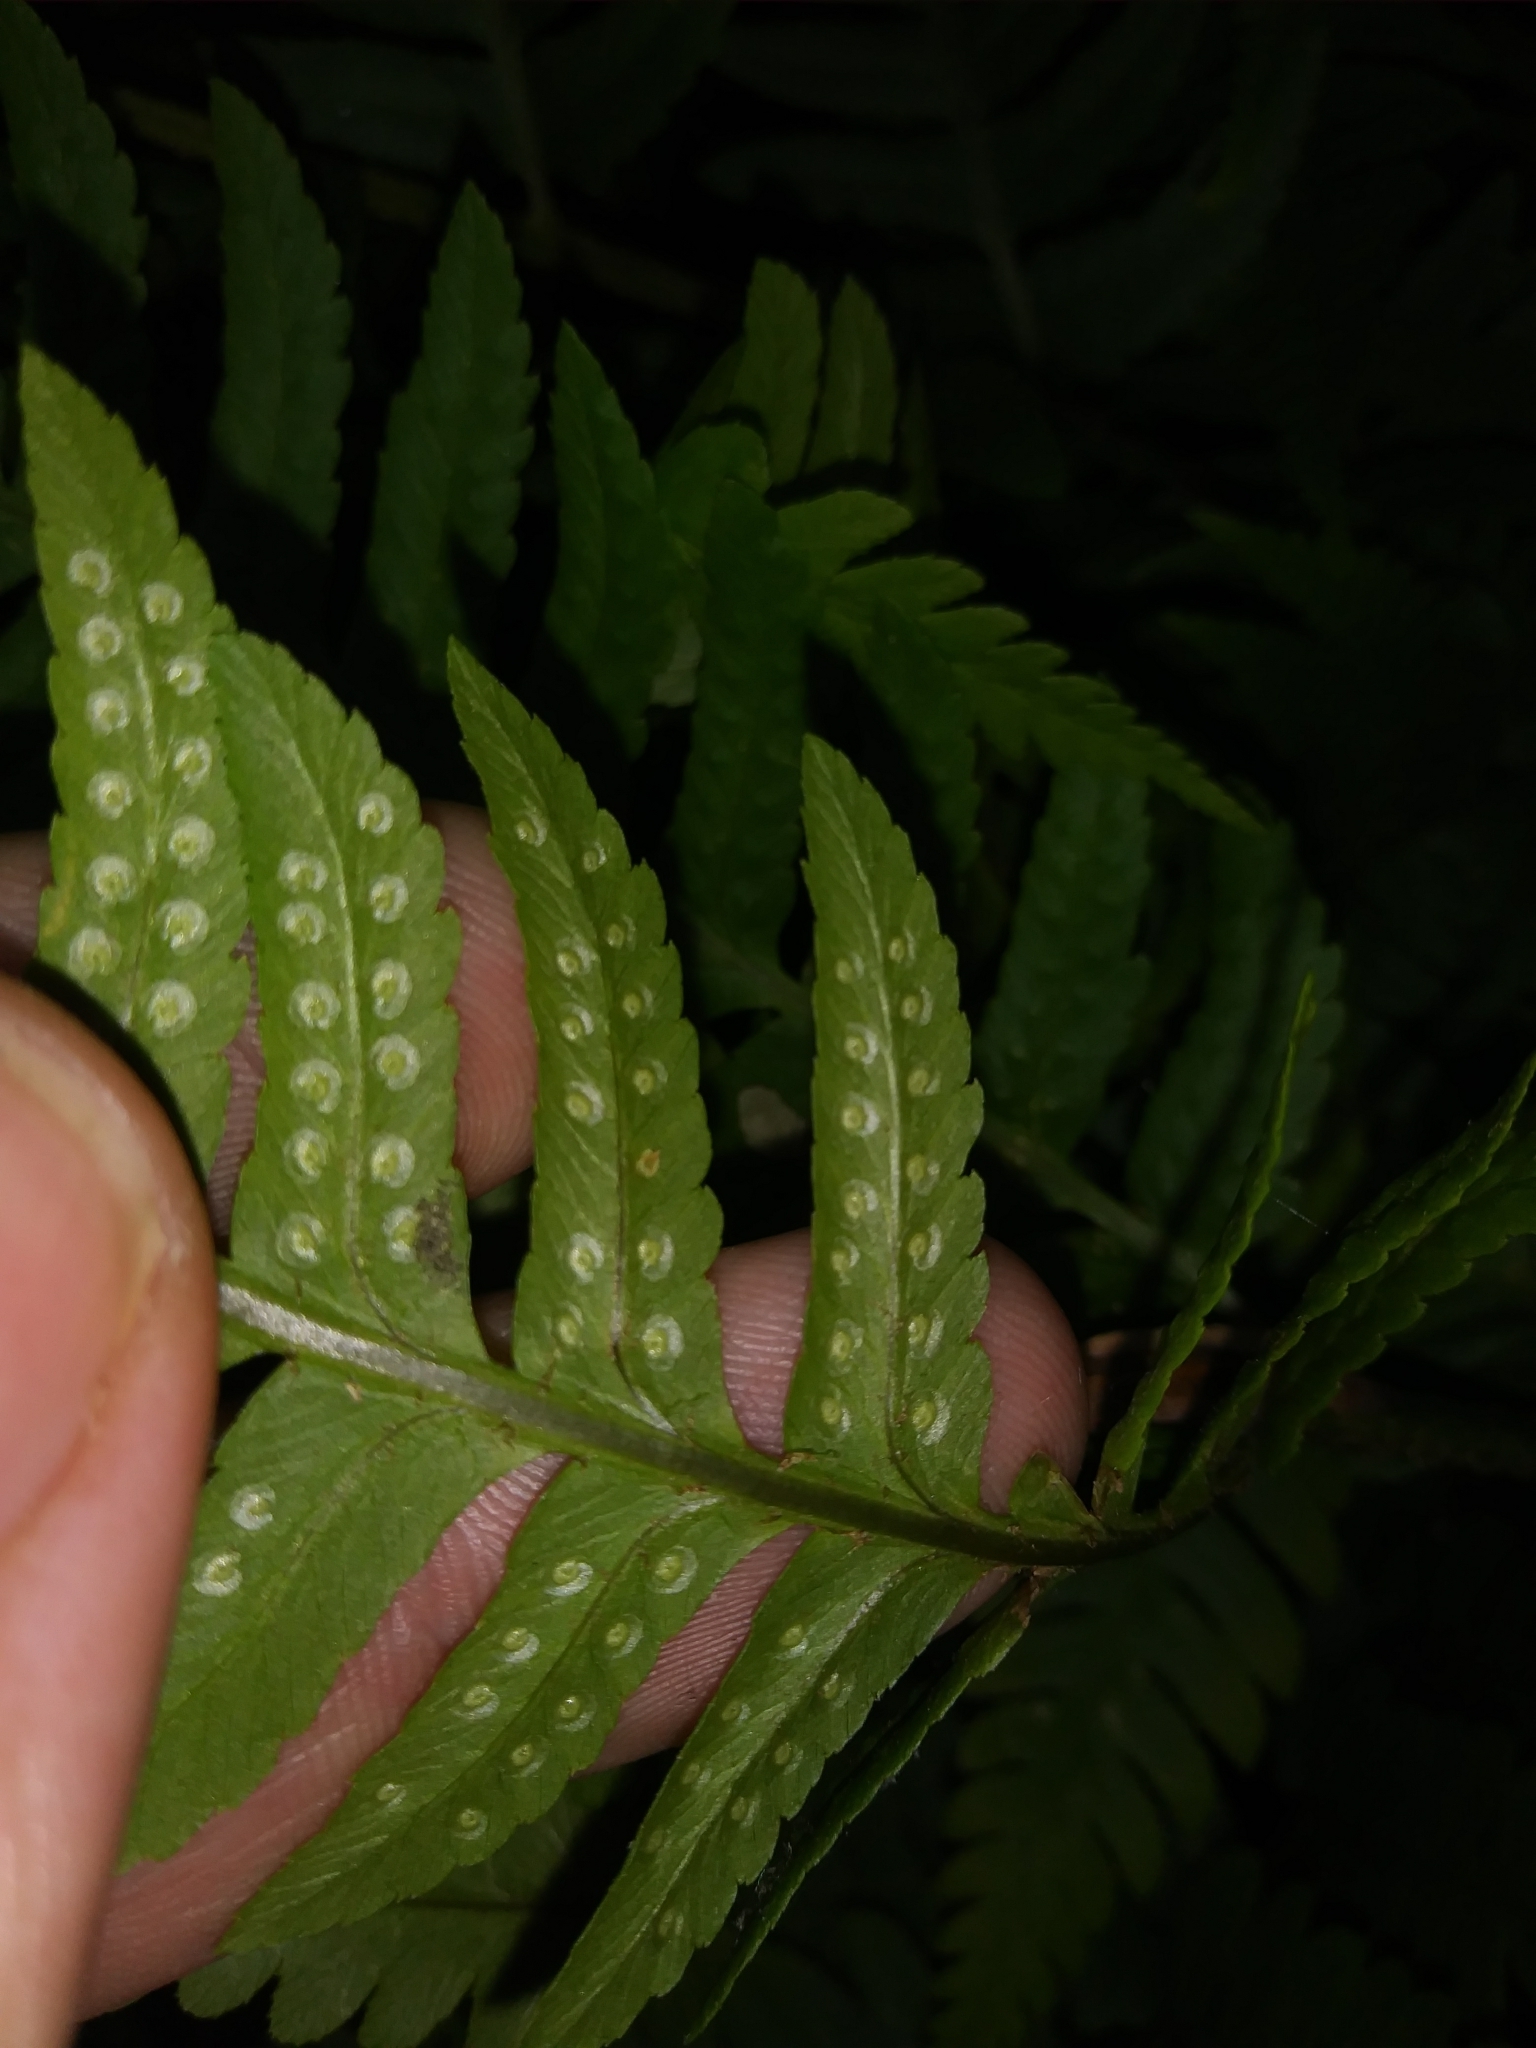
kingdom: Plantae
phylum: Tracheophyta
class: Polypodiopsida
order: Polypodiales
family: Dryopteridaceae
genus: Dryopteris
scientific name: Dryopteris leedsii
